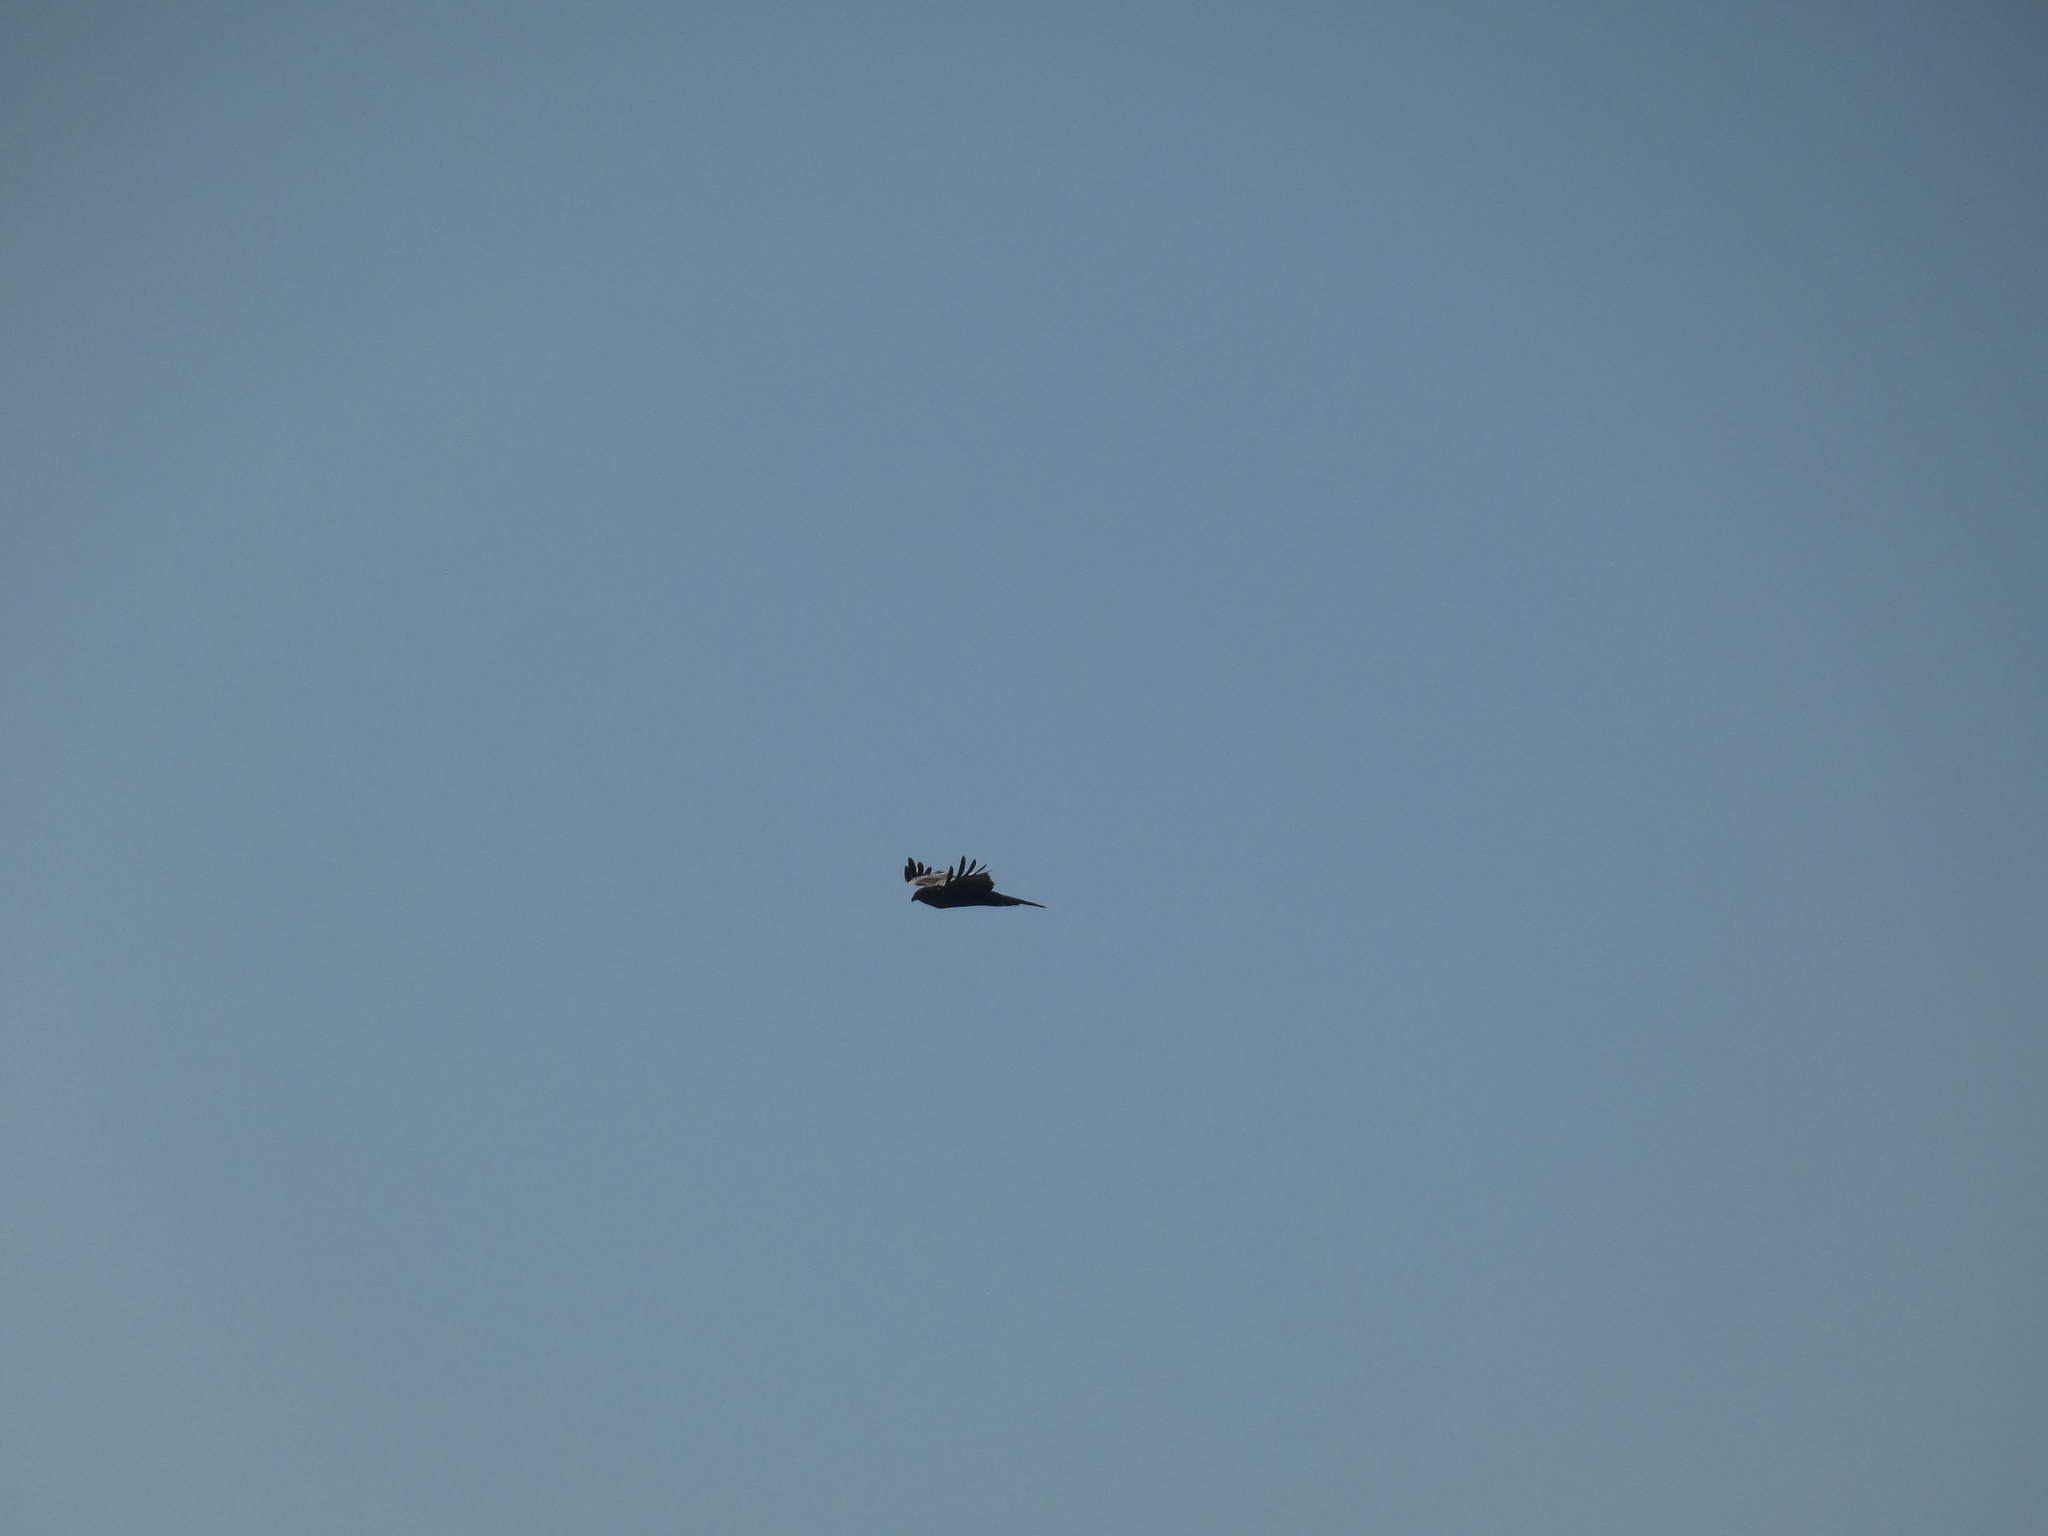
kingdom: Animalia
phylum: Chordata
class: Aves
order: Accipitriformes
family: Accipitridae
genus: Circus
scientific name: Circus aeruginosus
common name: Western marsh harrier
